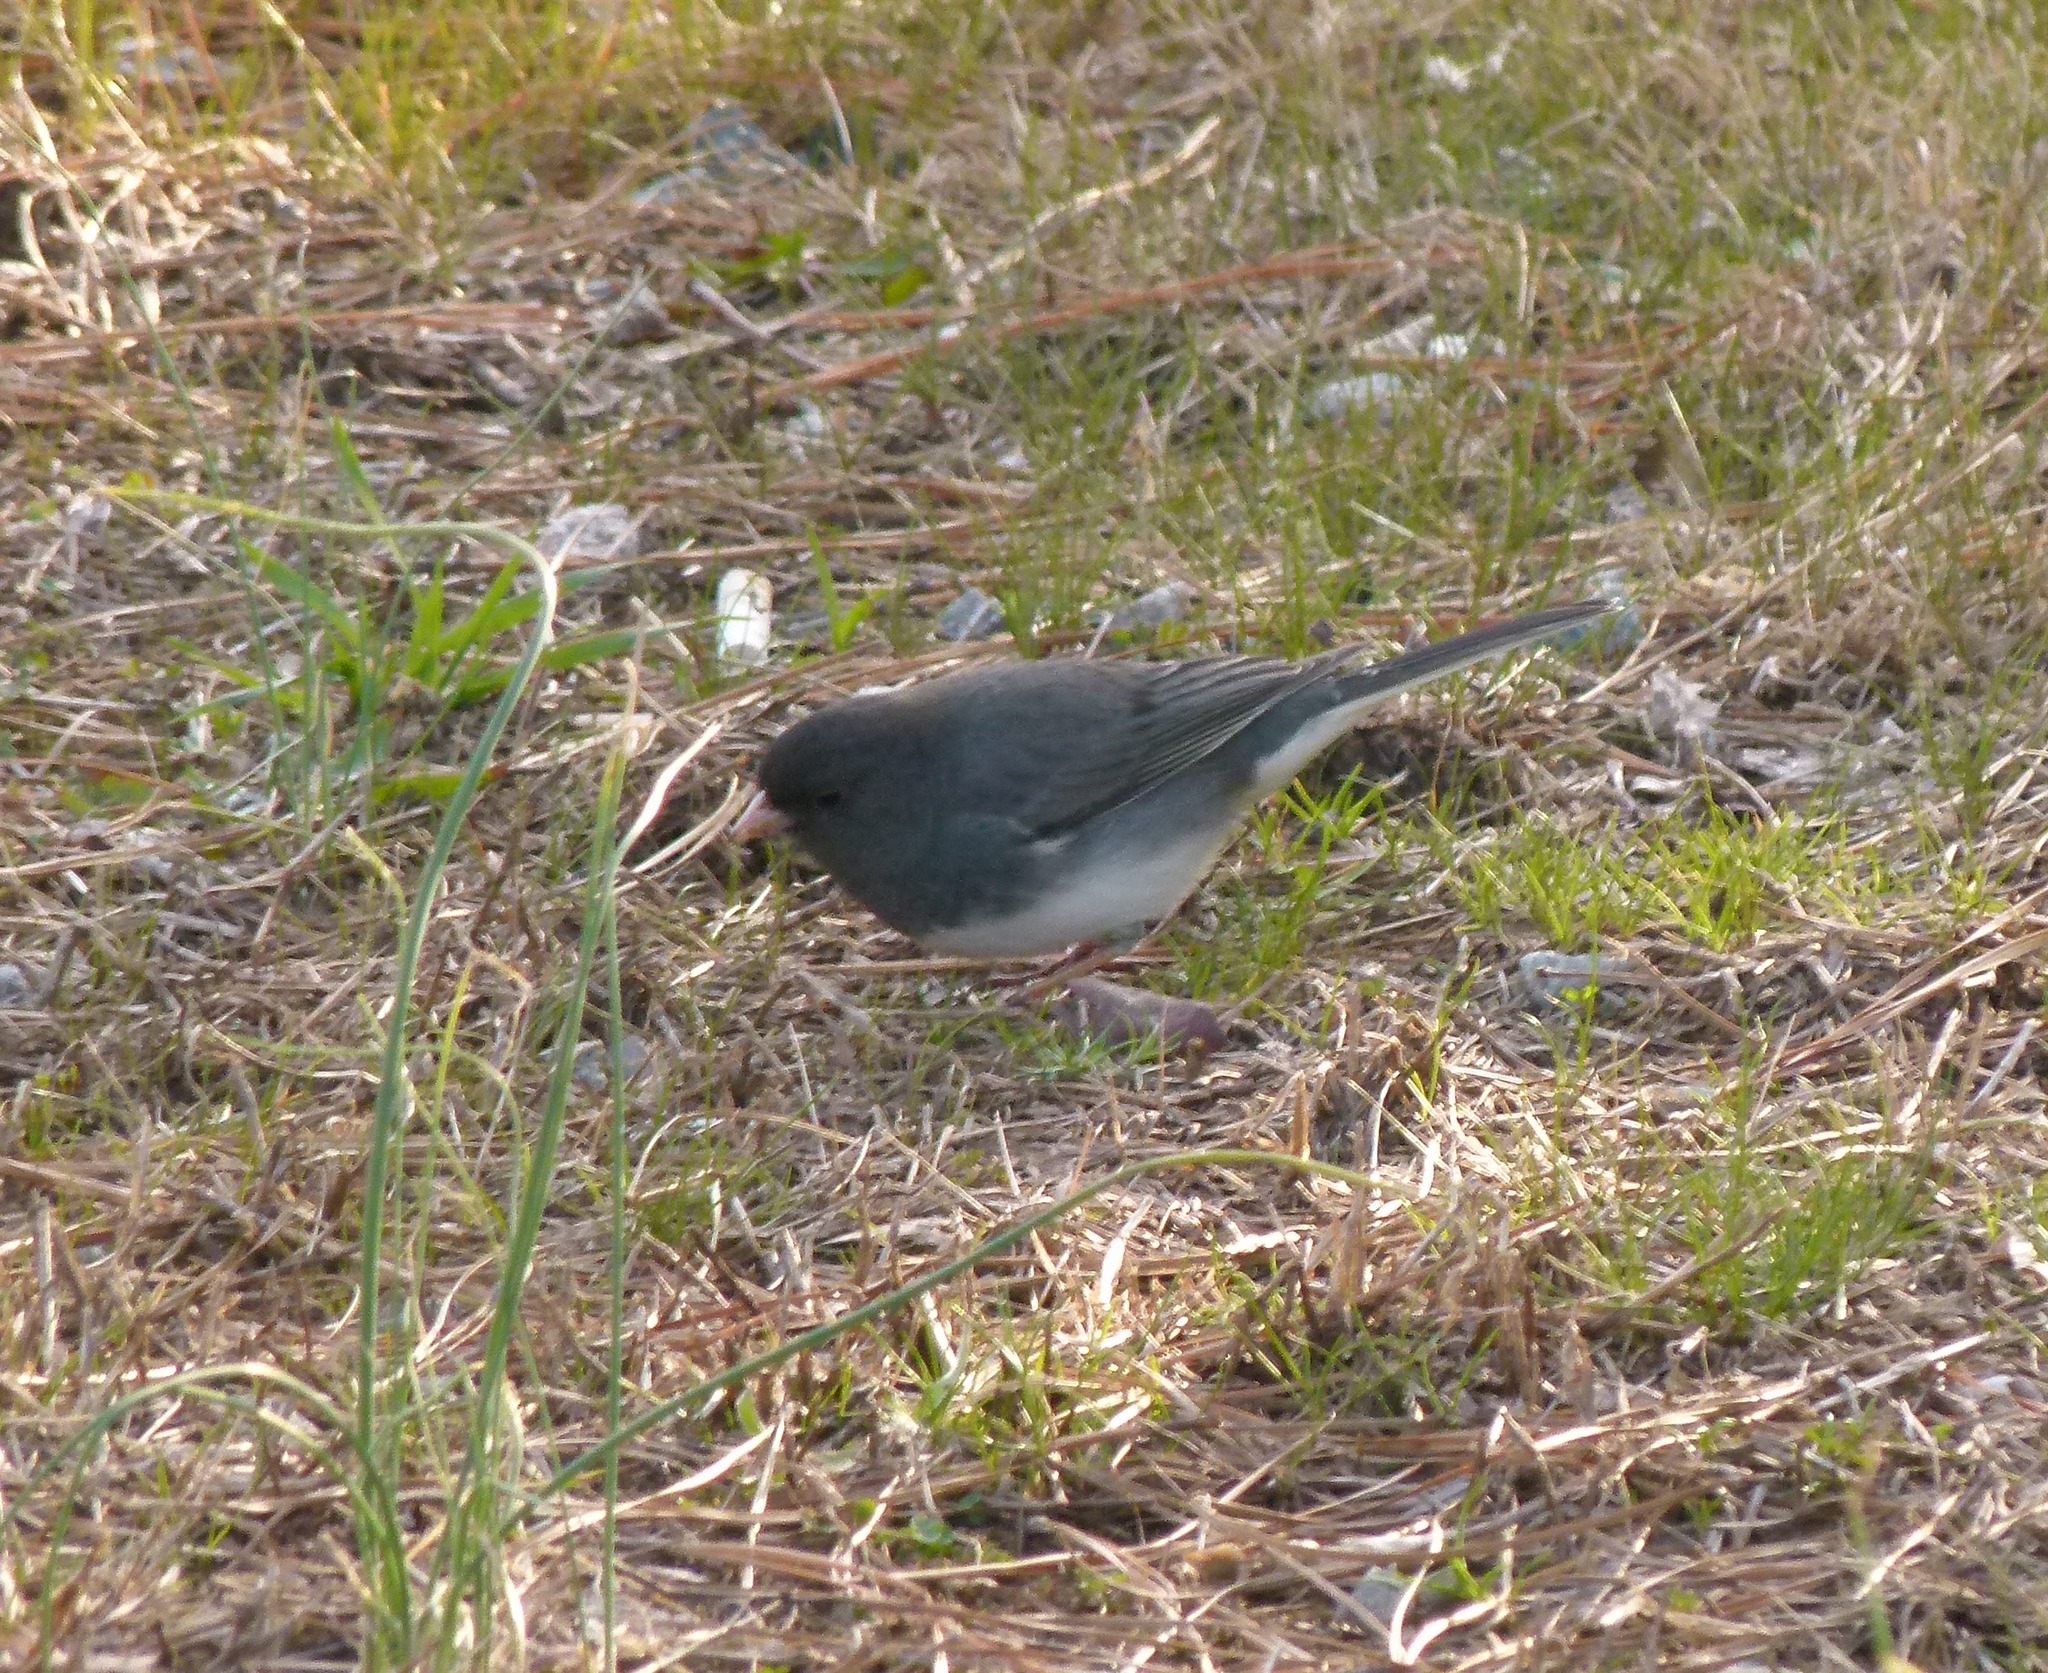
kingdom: Animalia
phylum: Chordata
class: Aves
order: Passeriformes
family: Passerellidae
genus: Junco
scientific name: Junco hyemalis
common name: Dark-eyed junco
